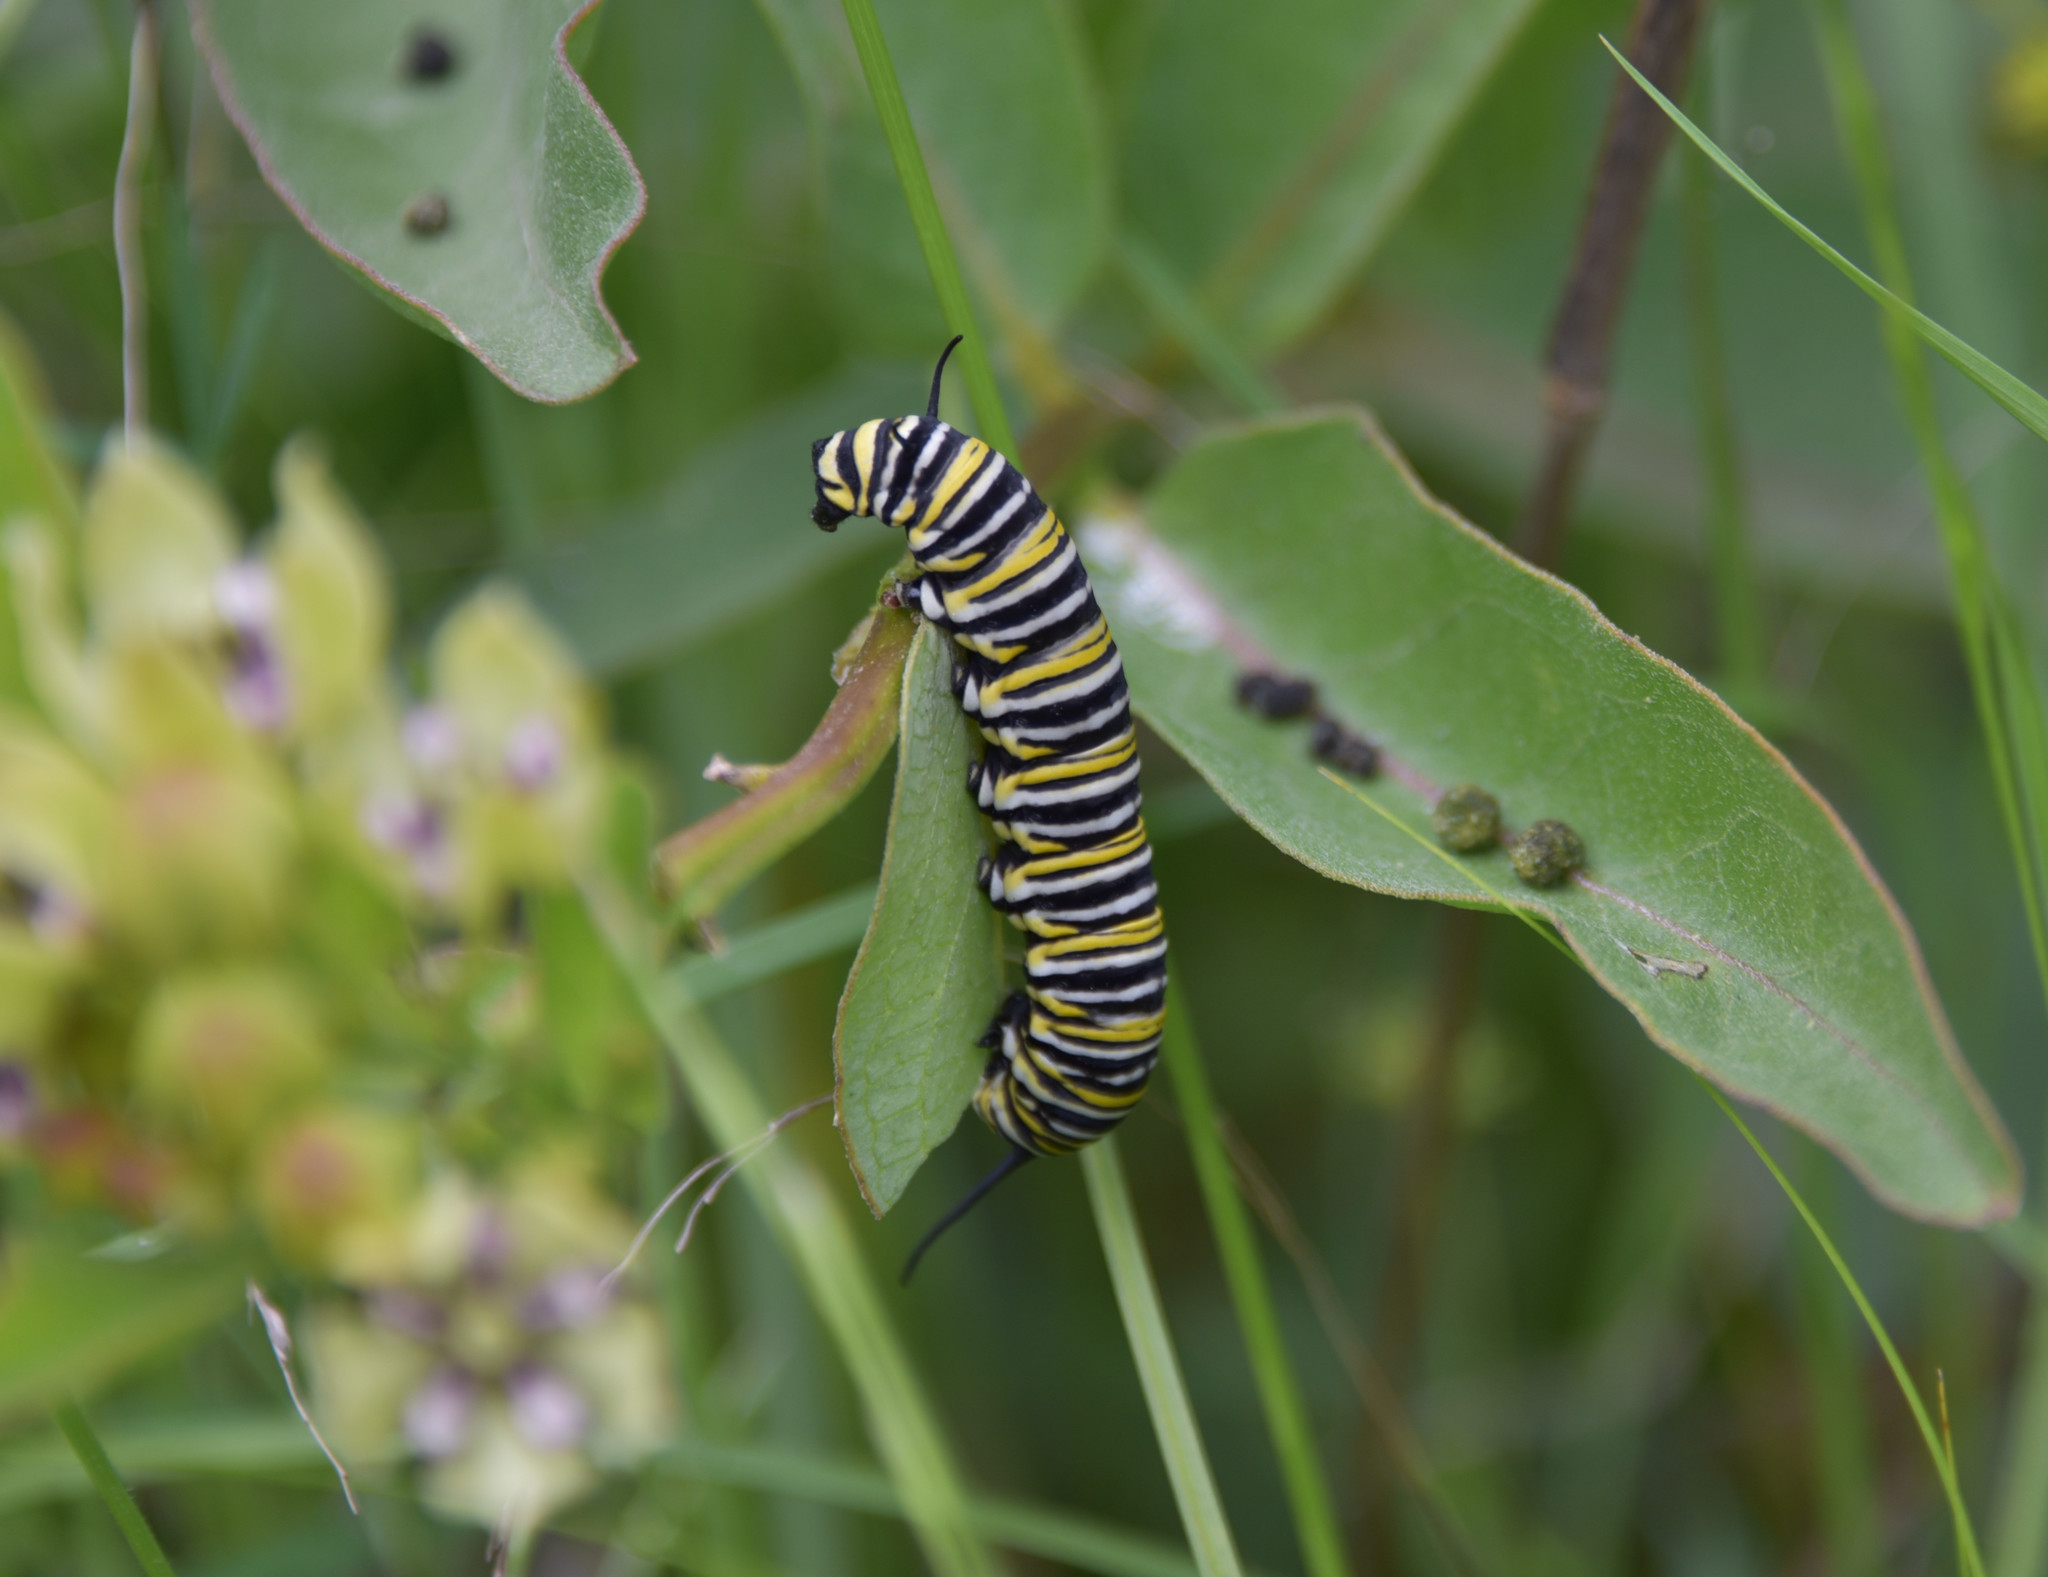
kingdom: Animalia
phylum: Arthropoda
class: Insecta
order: Lepidoptera
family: Nymphalidae
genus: Danaus
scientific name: Danaus plexippus
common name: Monarch
